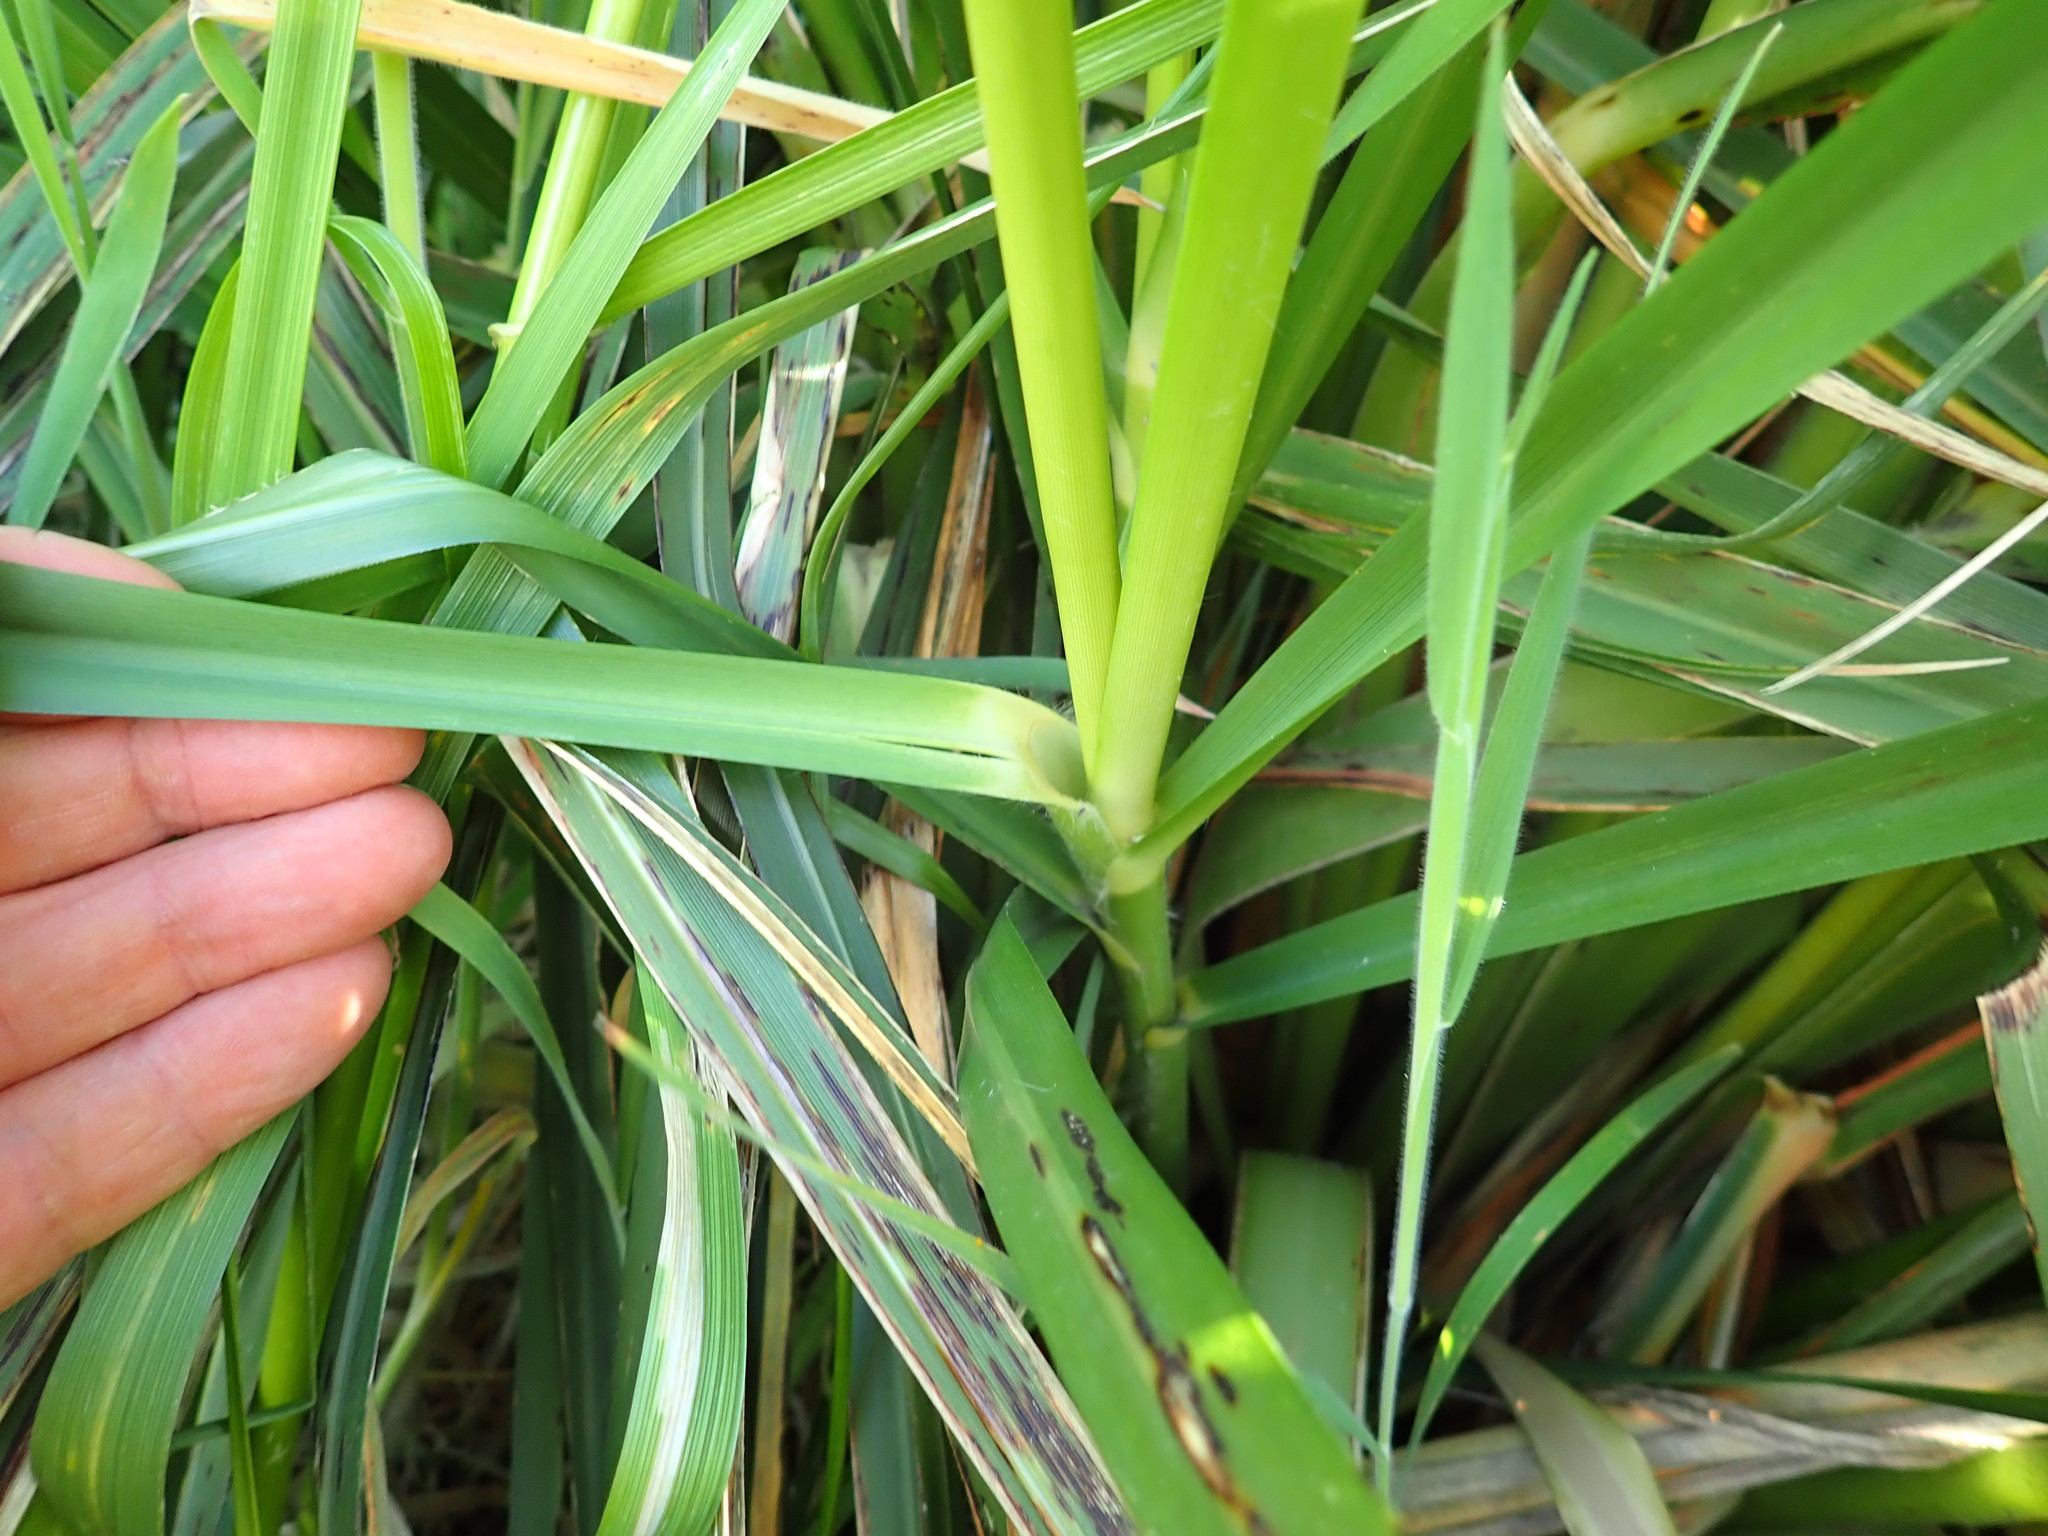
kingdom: Plantae
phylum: Tracheophyta
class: Liliopsida
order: Poales
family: Poaceae
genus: Cortaderia
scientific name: Cortaderia jubata
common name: Purple pampas grass
